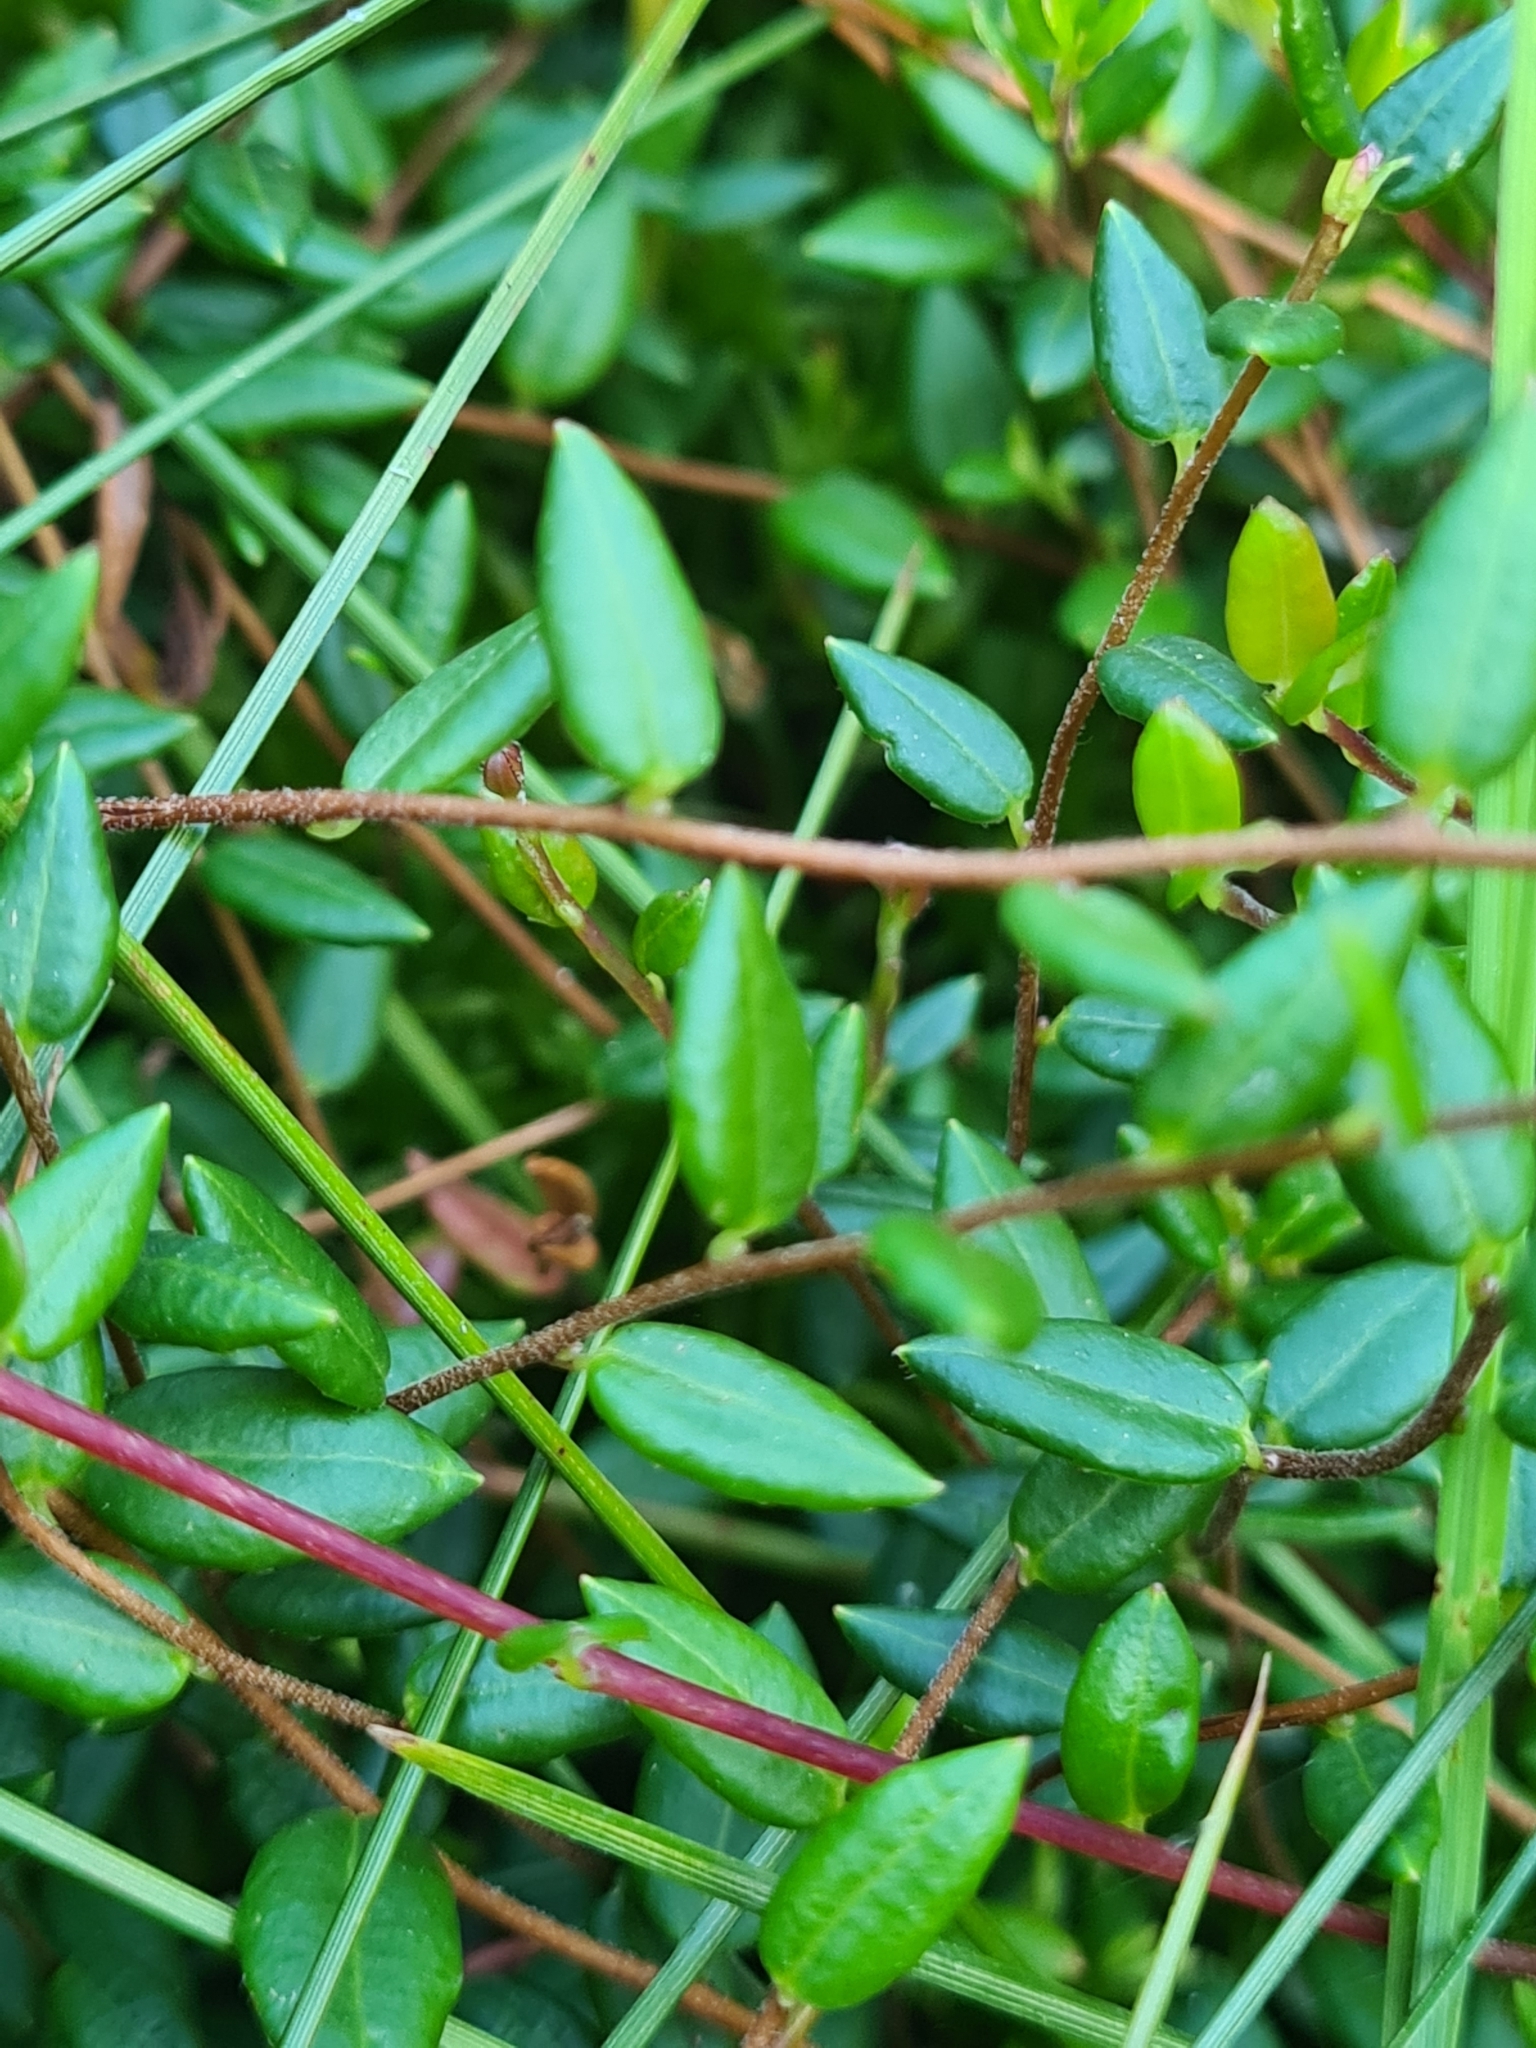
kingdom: Plantae
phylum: Tracheophyta
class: Magnoliopsida
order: Ericales
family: Ericaceae
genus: Vaccinium
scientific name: Vaccinium oxycoccos
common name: Cranberry
